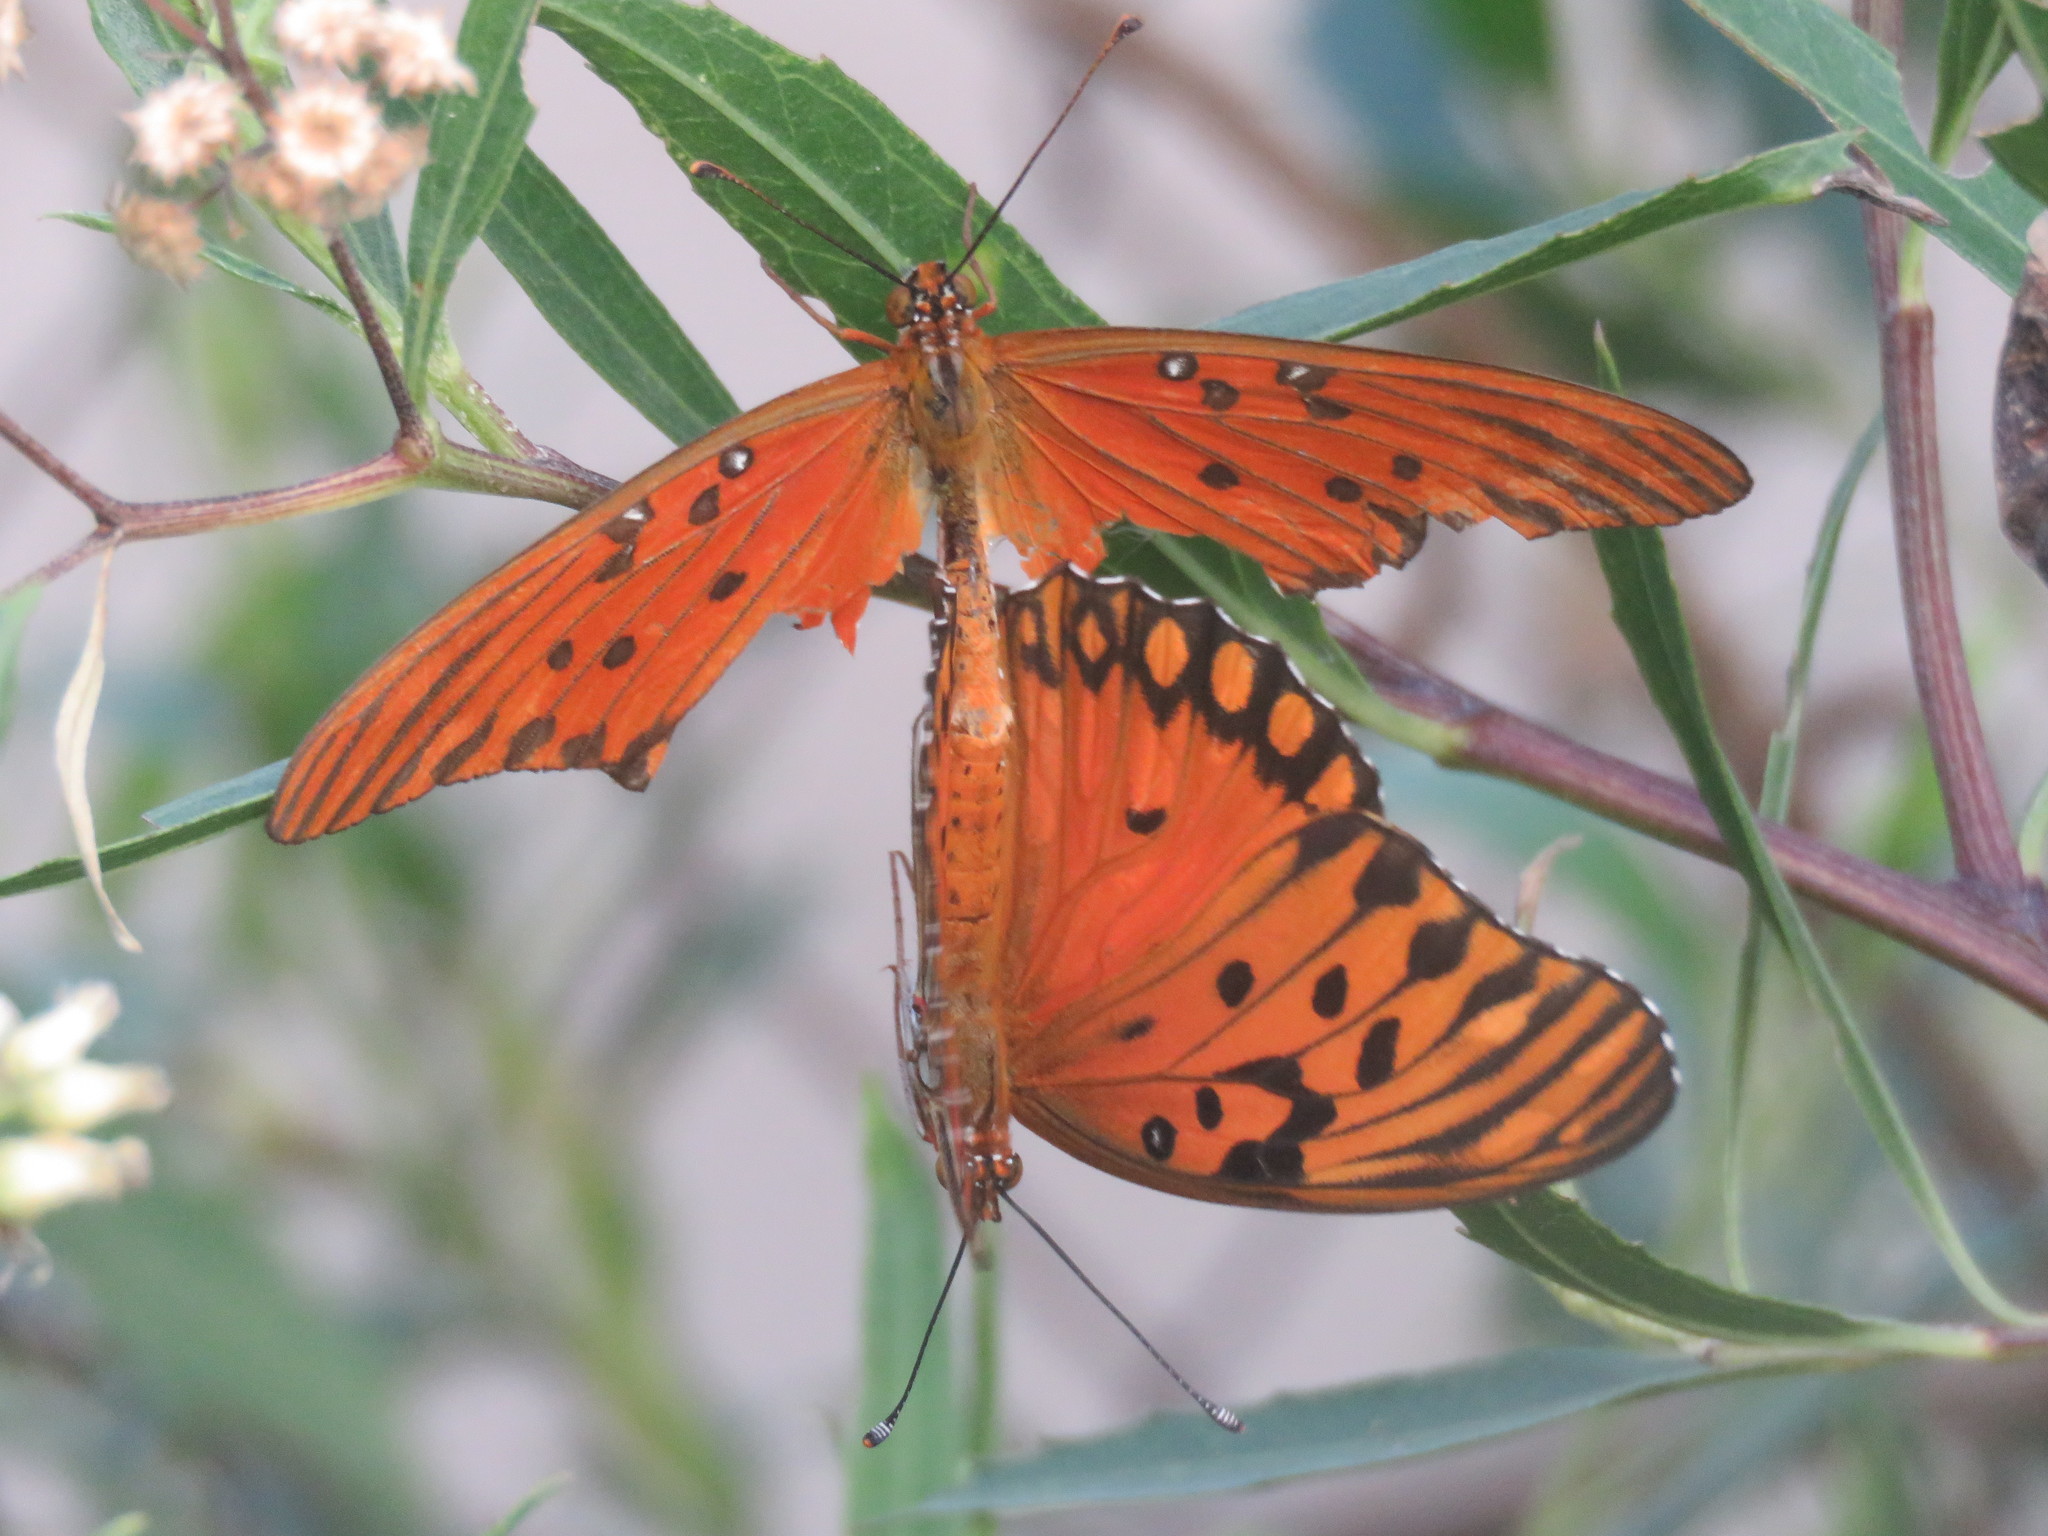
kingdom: Animalia
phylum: Arthropoda
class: Insecta
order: Lepidoptera
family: Nymphalidae
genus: Dione
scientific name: Dione vanillae
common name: Gulf fritillary
